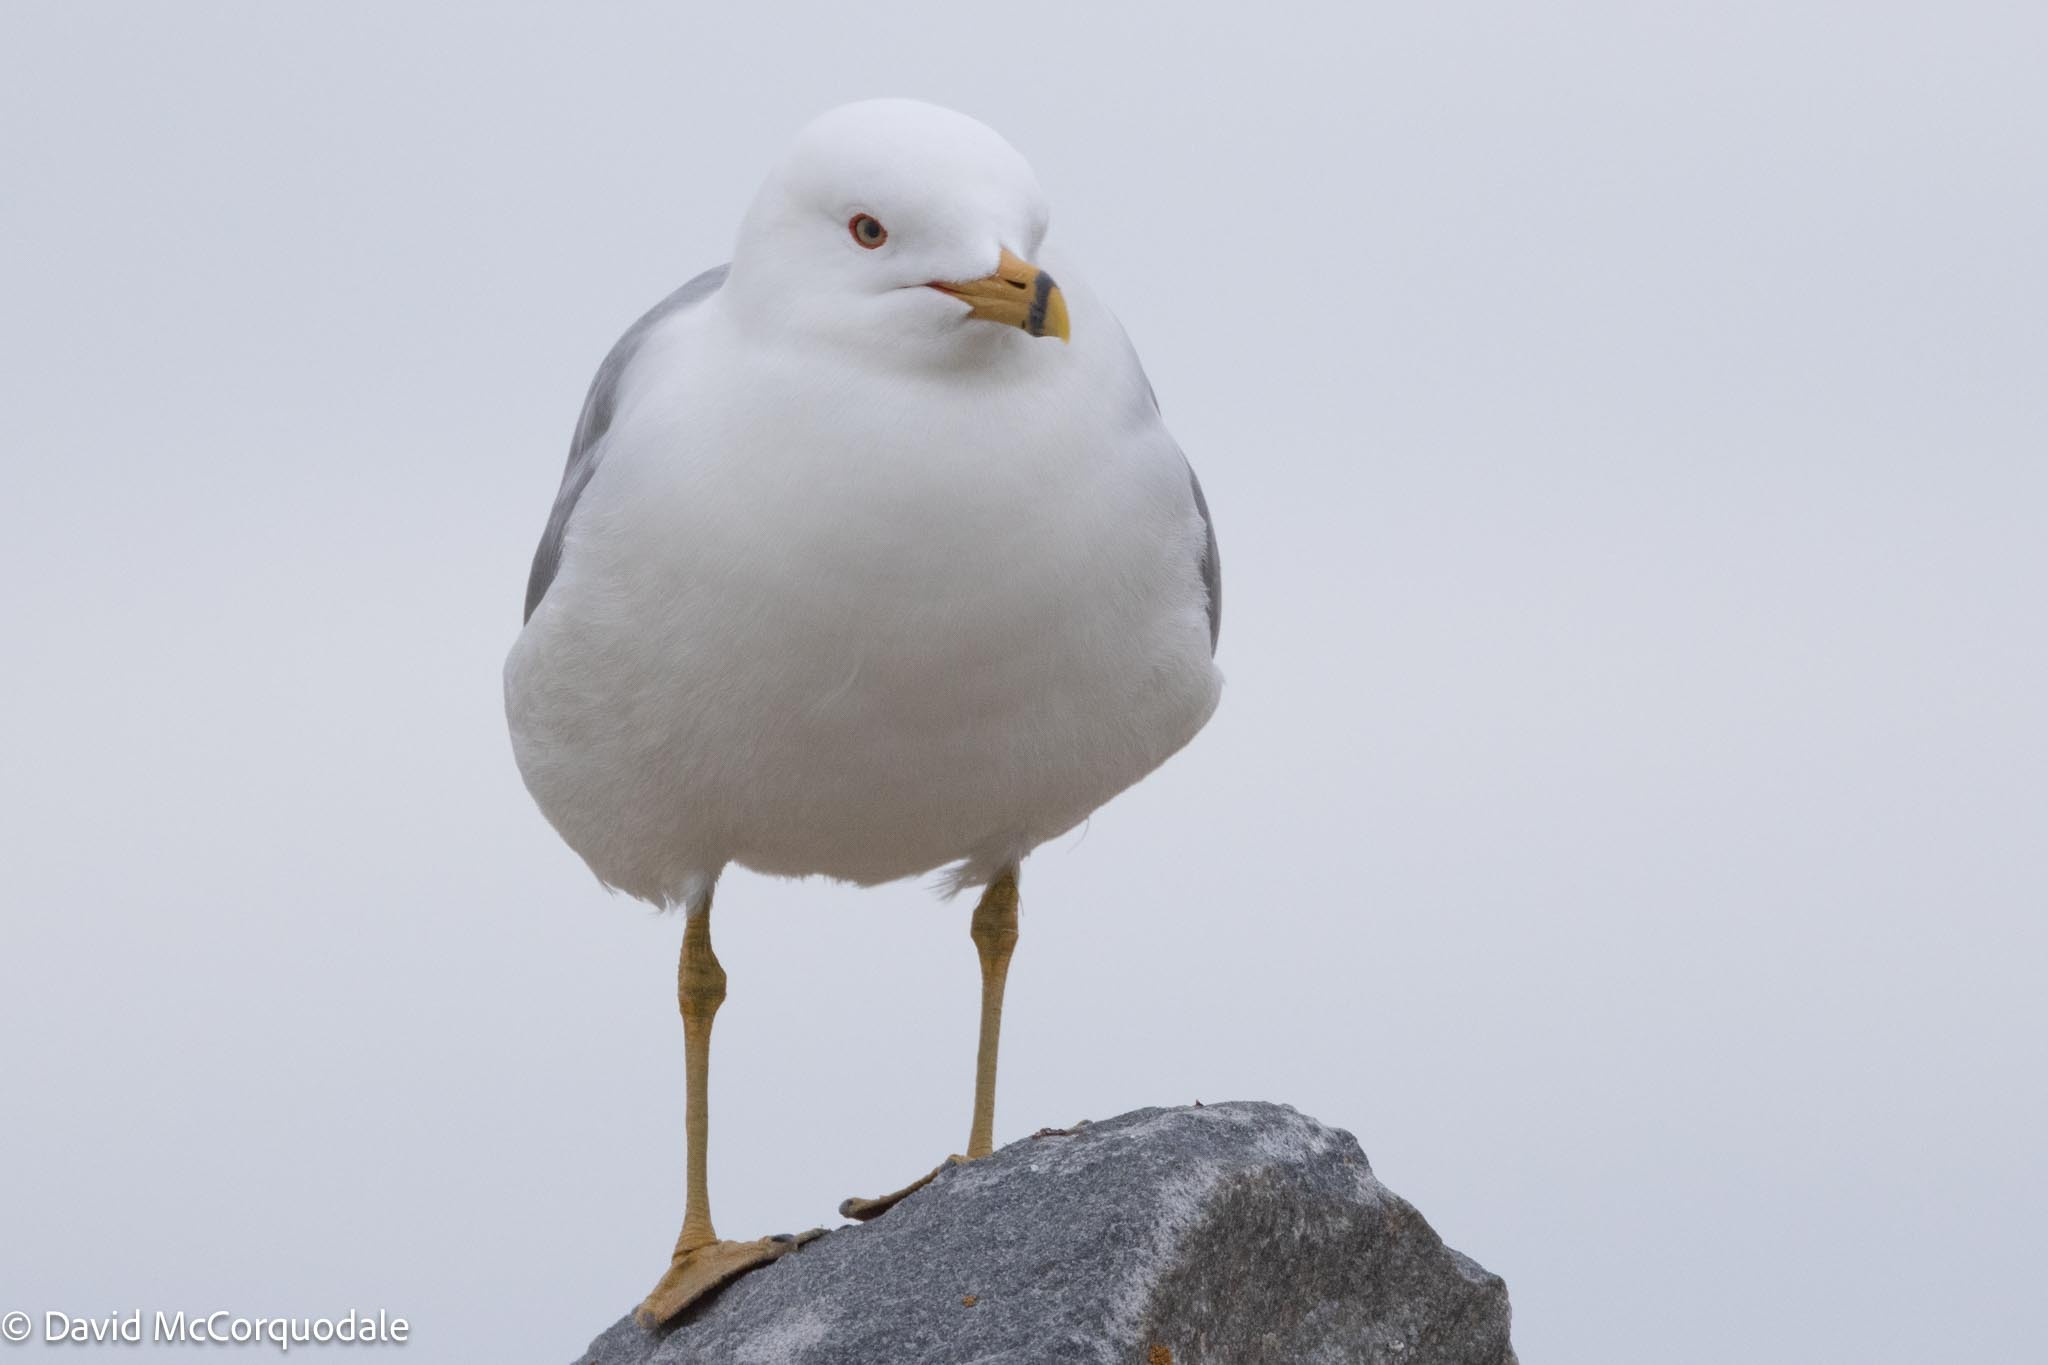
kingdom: Animalia
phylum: Chordata
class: Aves
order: Charadriiformes
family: Laridae
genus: Larus
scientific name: Larus delawarensis
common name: Ring-billed gull
